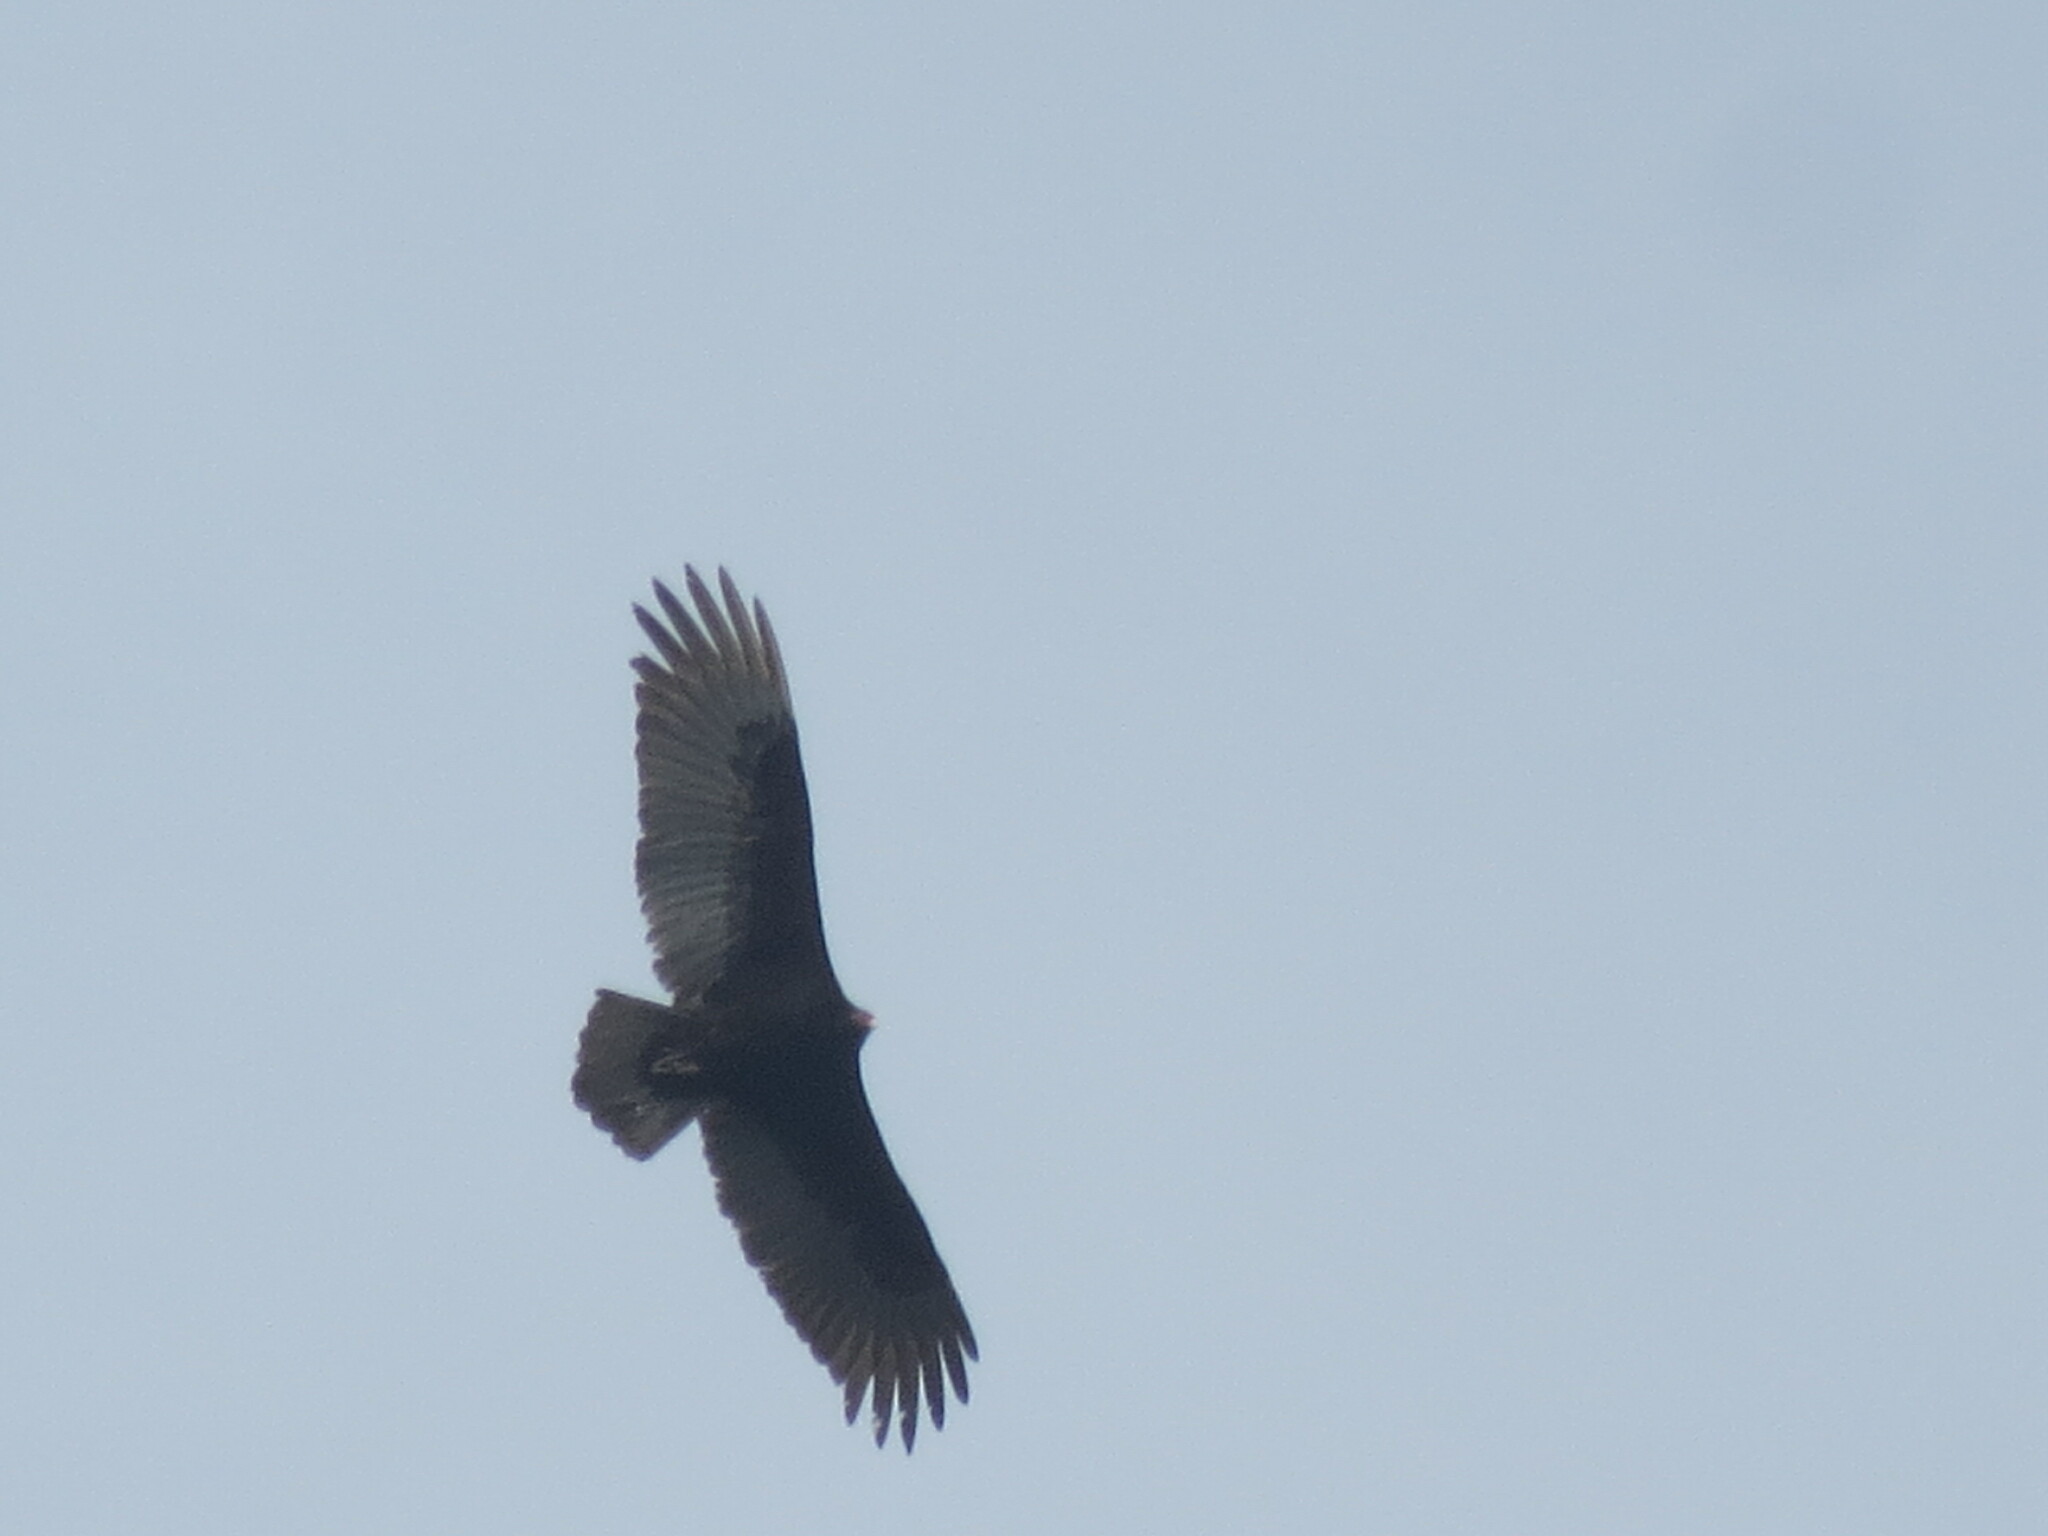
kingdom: Animalia
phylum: Chordata
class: Aves
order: Accipitriformes
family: Cathartidae
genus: Cathartes
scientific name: Cathartes aura
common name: Turkey vulture
